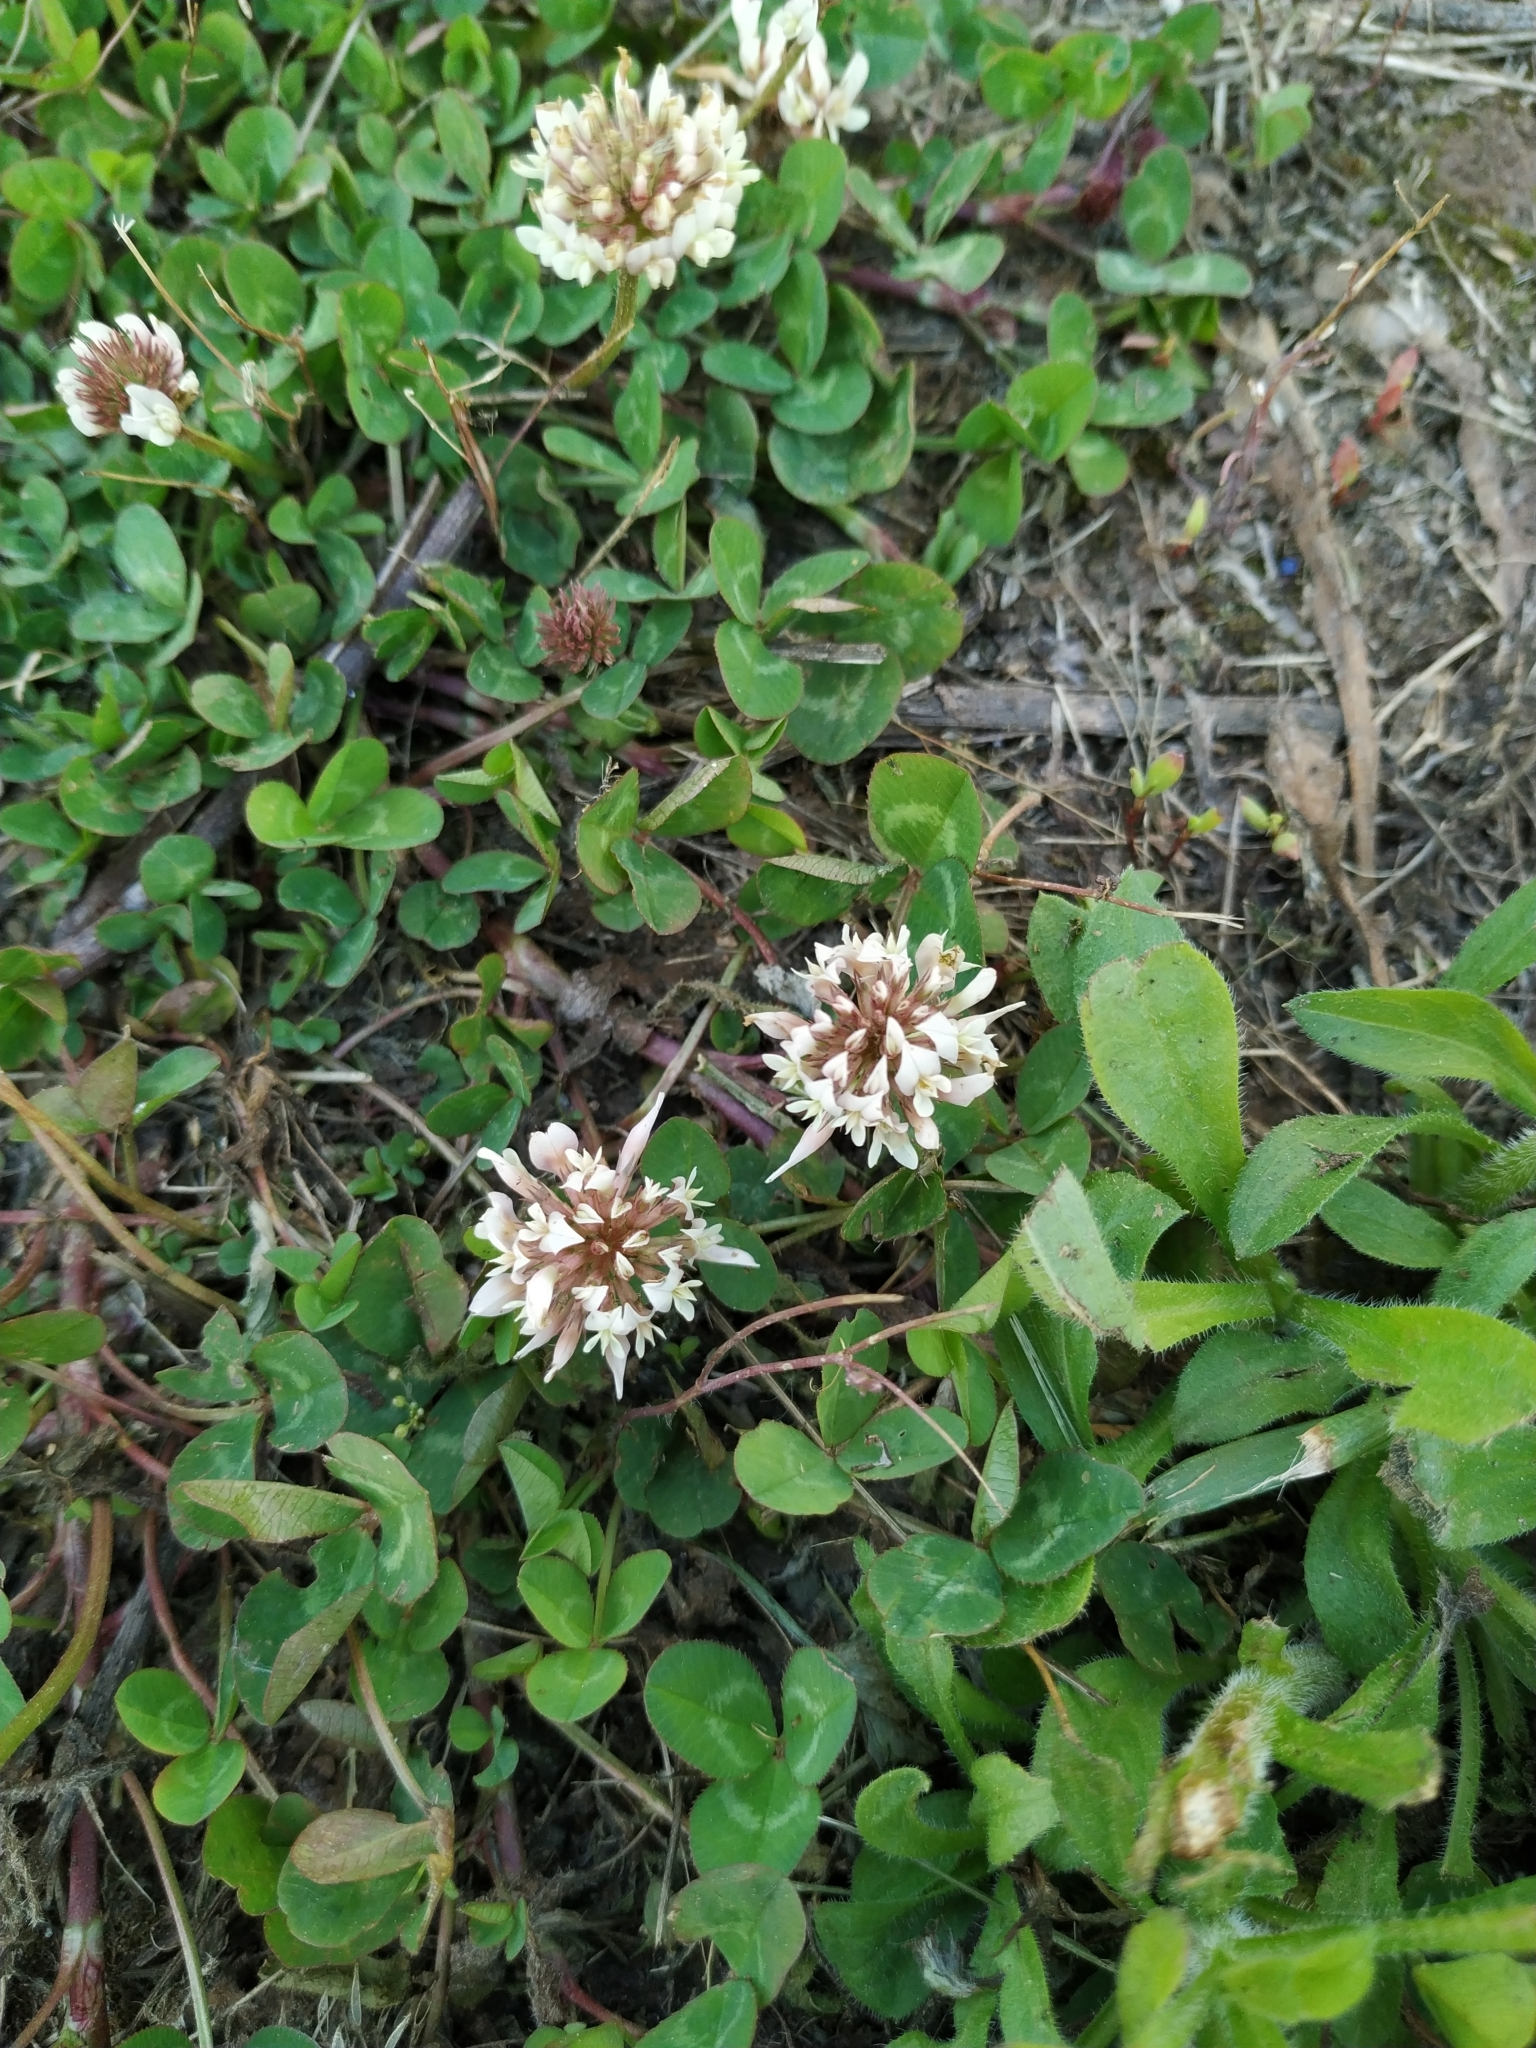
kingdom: Plantae
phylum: Tracheophyta
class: Magnoliopsida
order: Fabales
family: Fabaceae
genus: Trifolium
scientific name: Trifolium repens
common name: White clover
